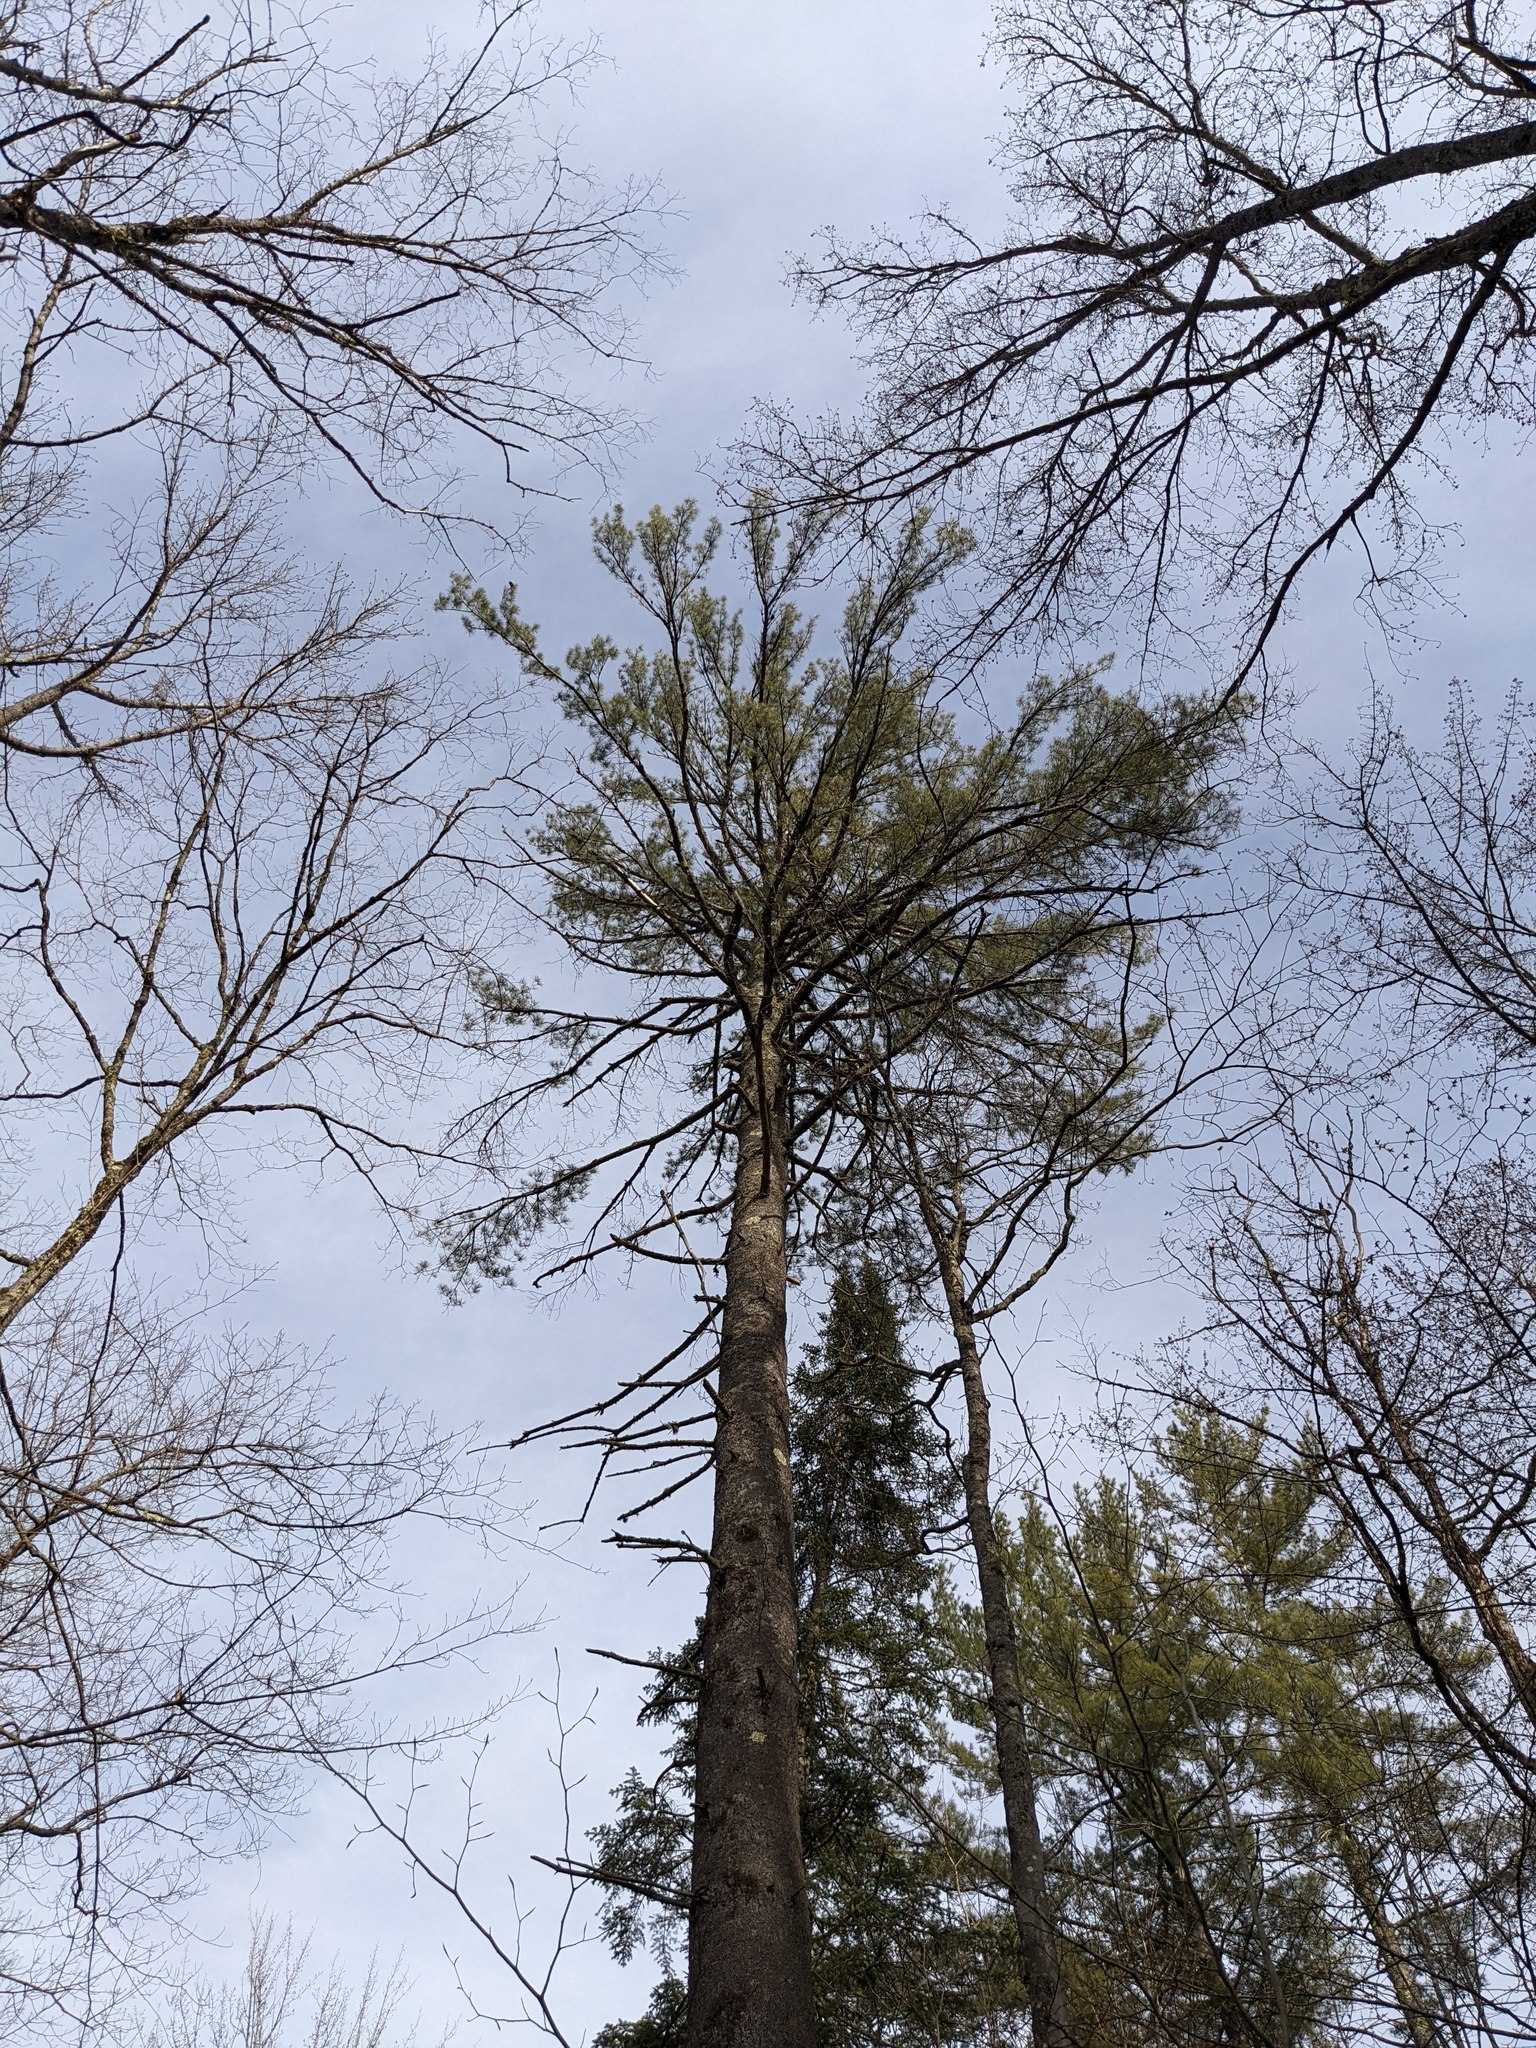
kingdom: Plantae
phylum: Tracheophyta
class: Pinopsida
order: Pinales
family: Pinaceae
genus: Pinus
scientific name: Pinus strobus
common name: Weymouth pine
